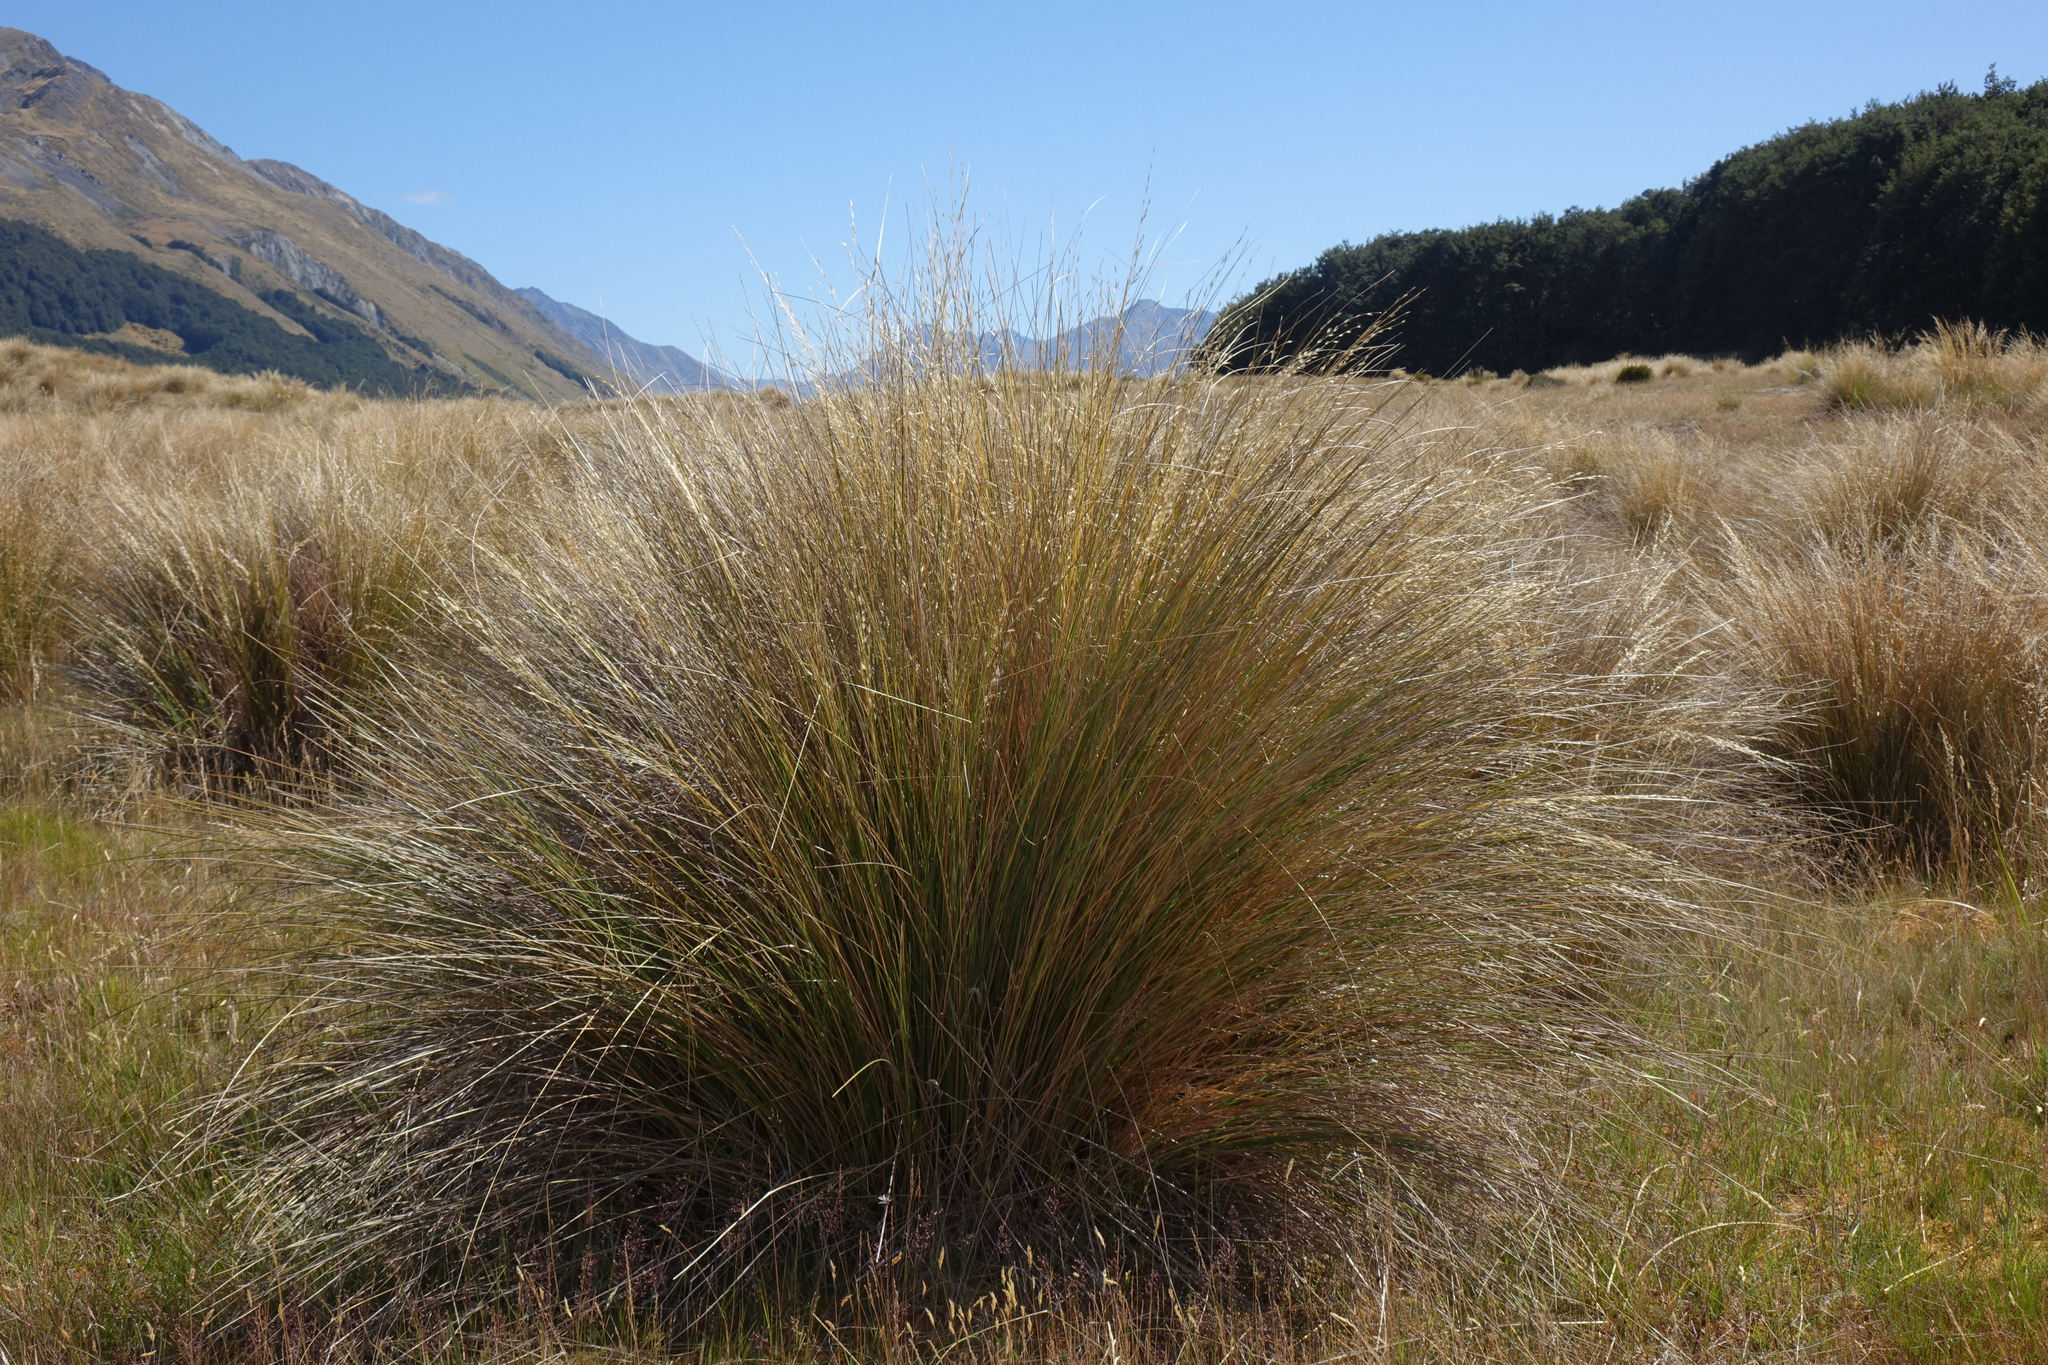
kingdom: Plantae
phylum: Tracheophyta
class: Liliopsida
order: Poales
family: Poaceae
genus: Chionochloa
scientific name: Chionochloa rubra
